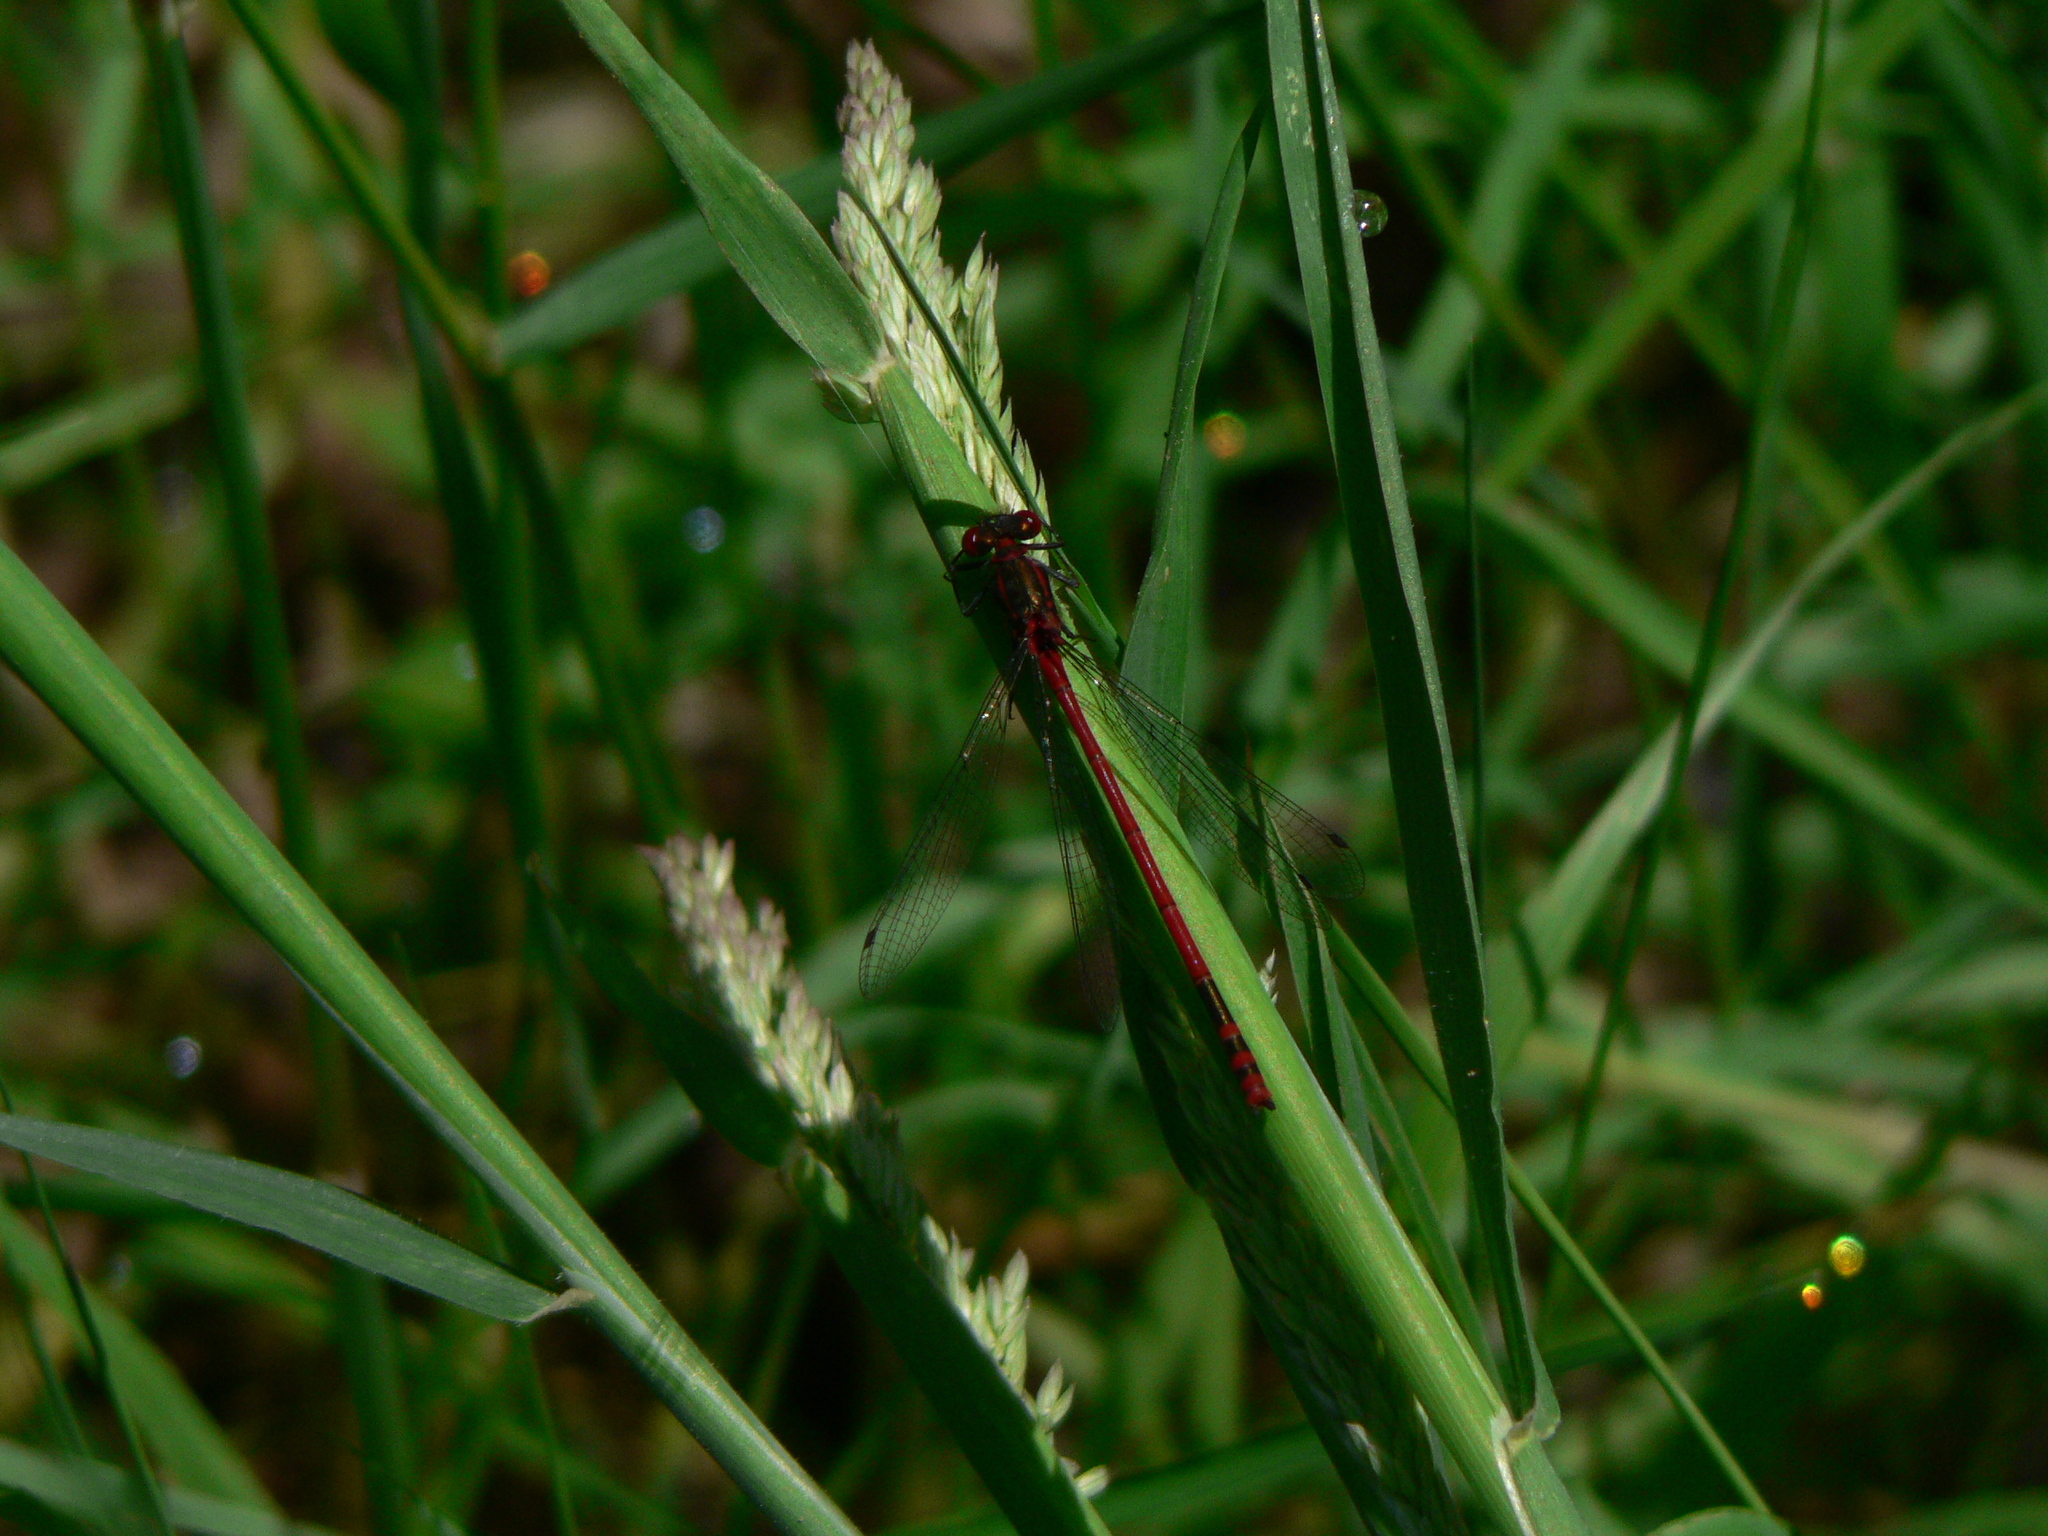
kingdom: Animalia
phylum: Arthropoda
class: Insecta
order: Odonata
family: Coenagrionidae
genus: Pyrrhosoma
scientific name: Pyrrhosoma nymphula
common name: Large red damsel
